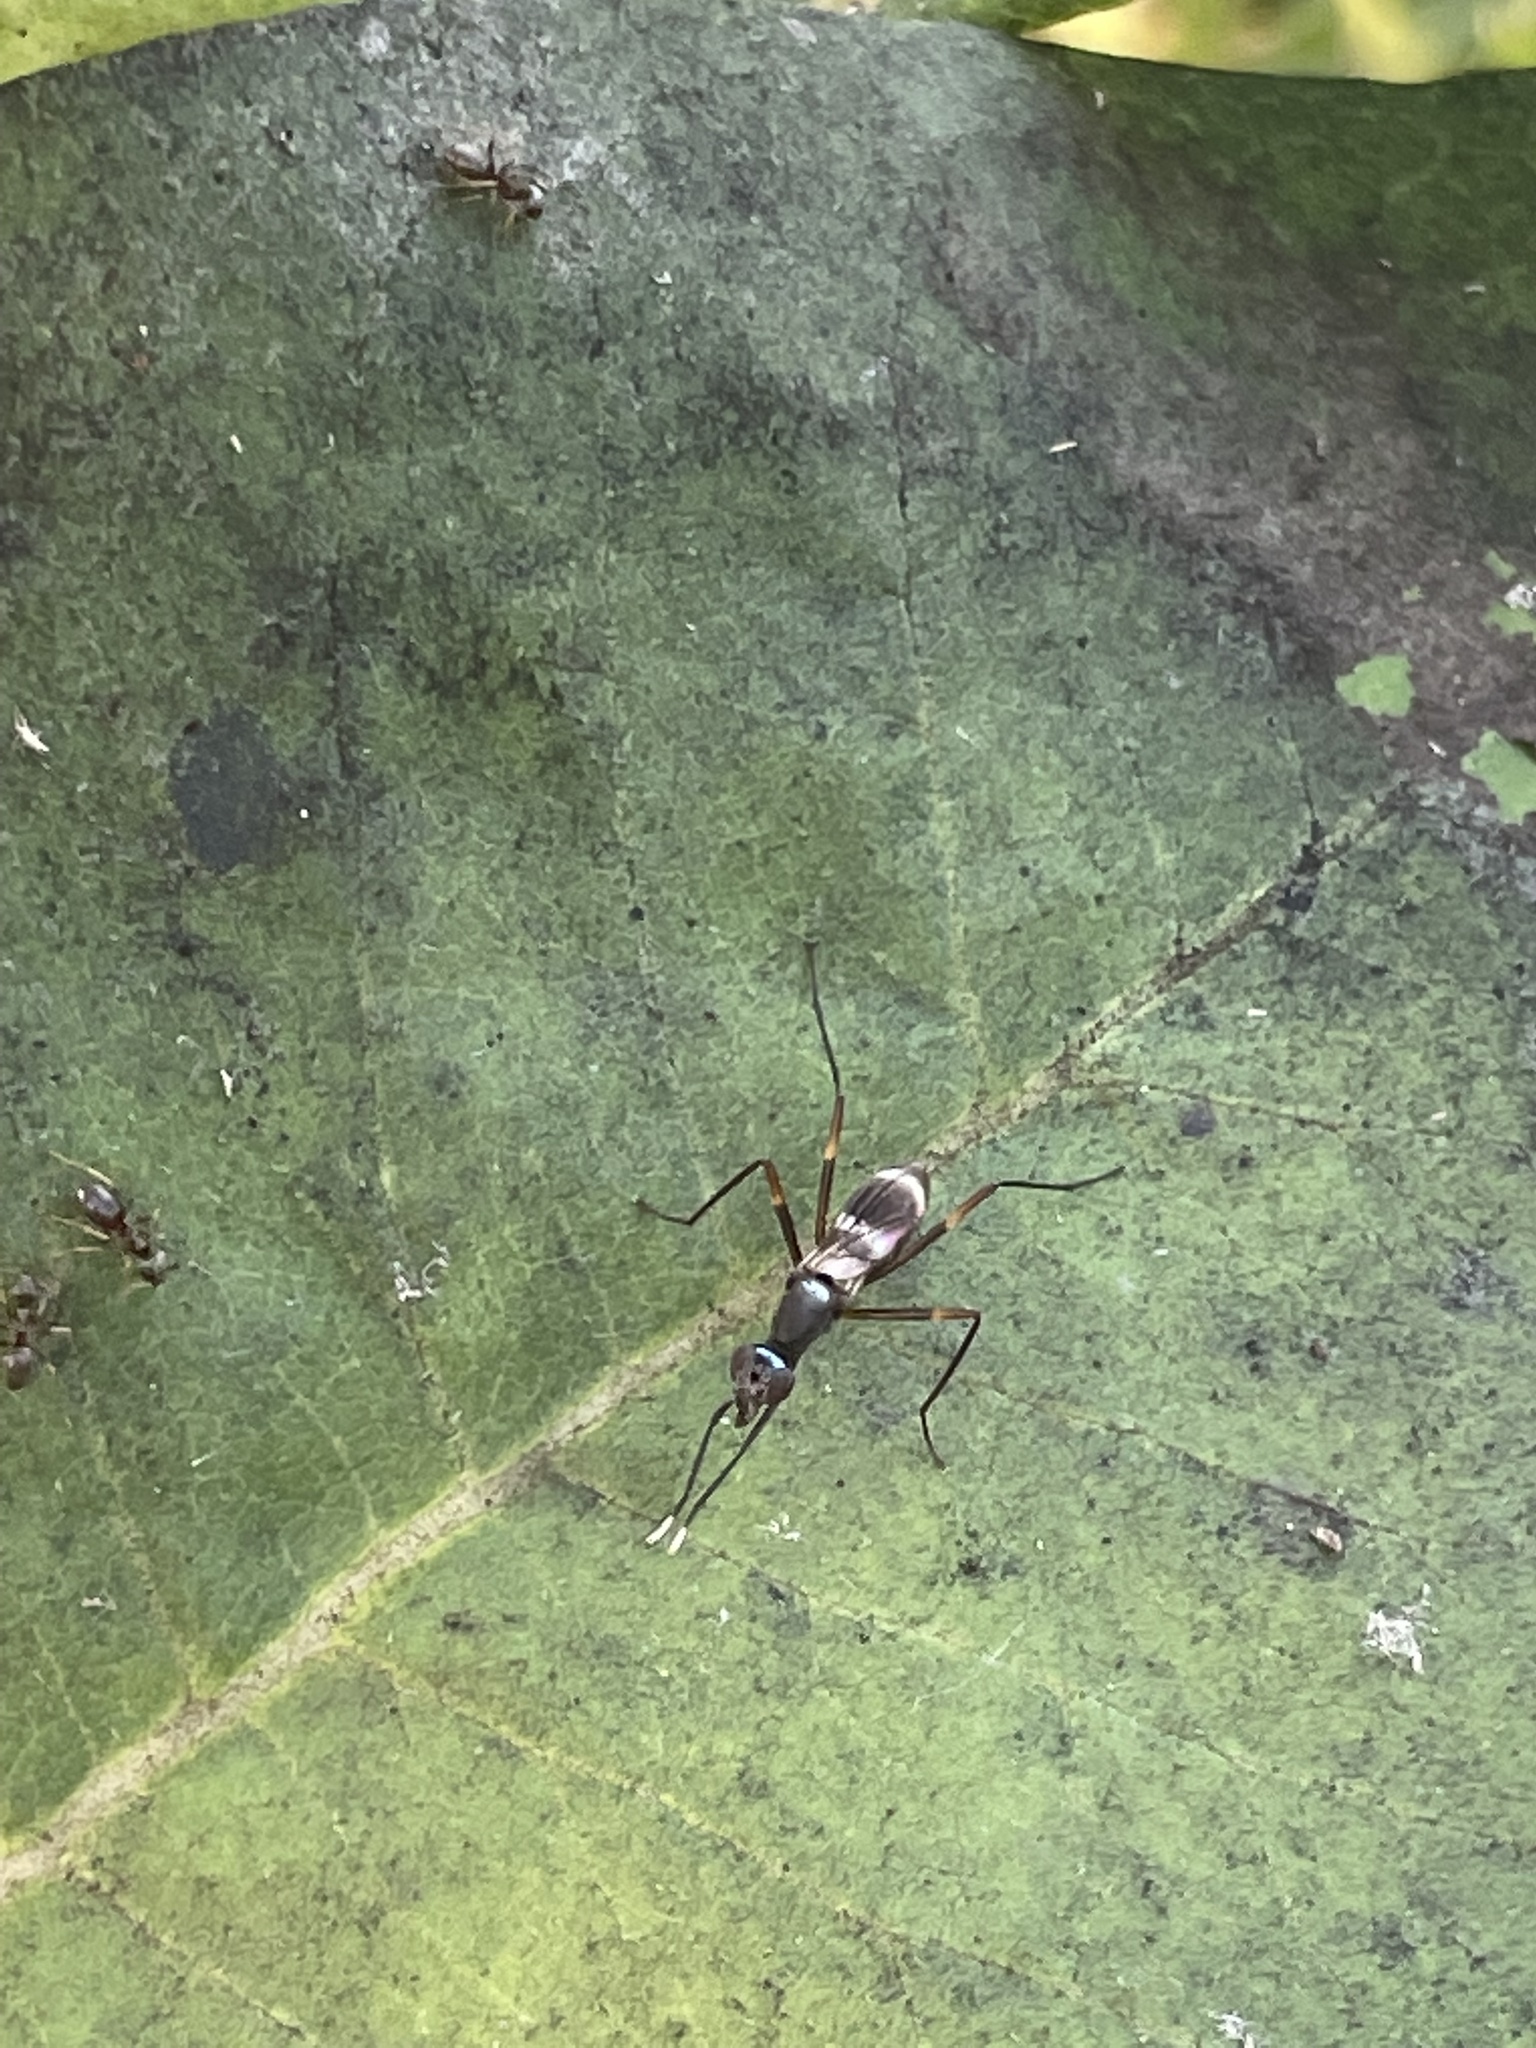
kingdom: Animalia
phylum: Arthropoda
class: Insecta
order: Diptera
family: Micropezidae
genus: Taeniaptera
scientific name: Taeniaptera trivittata
